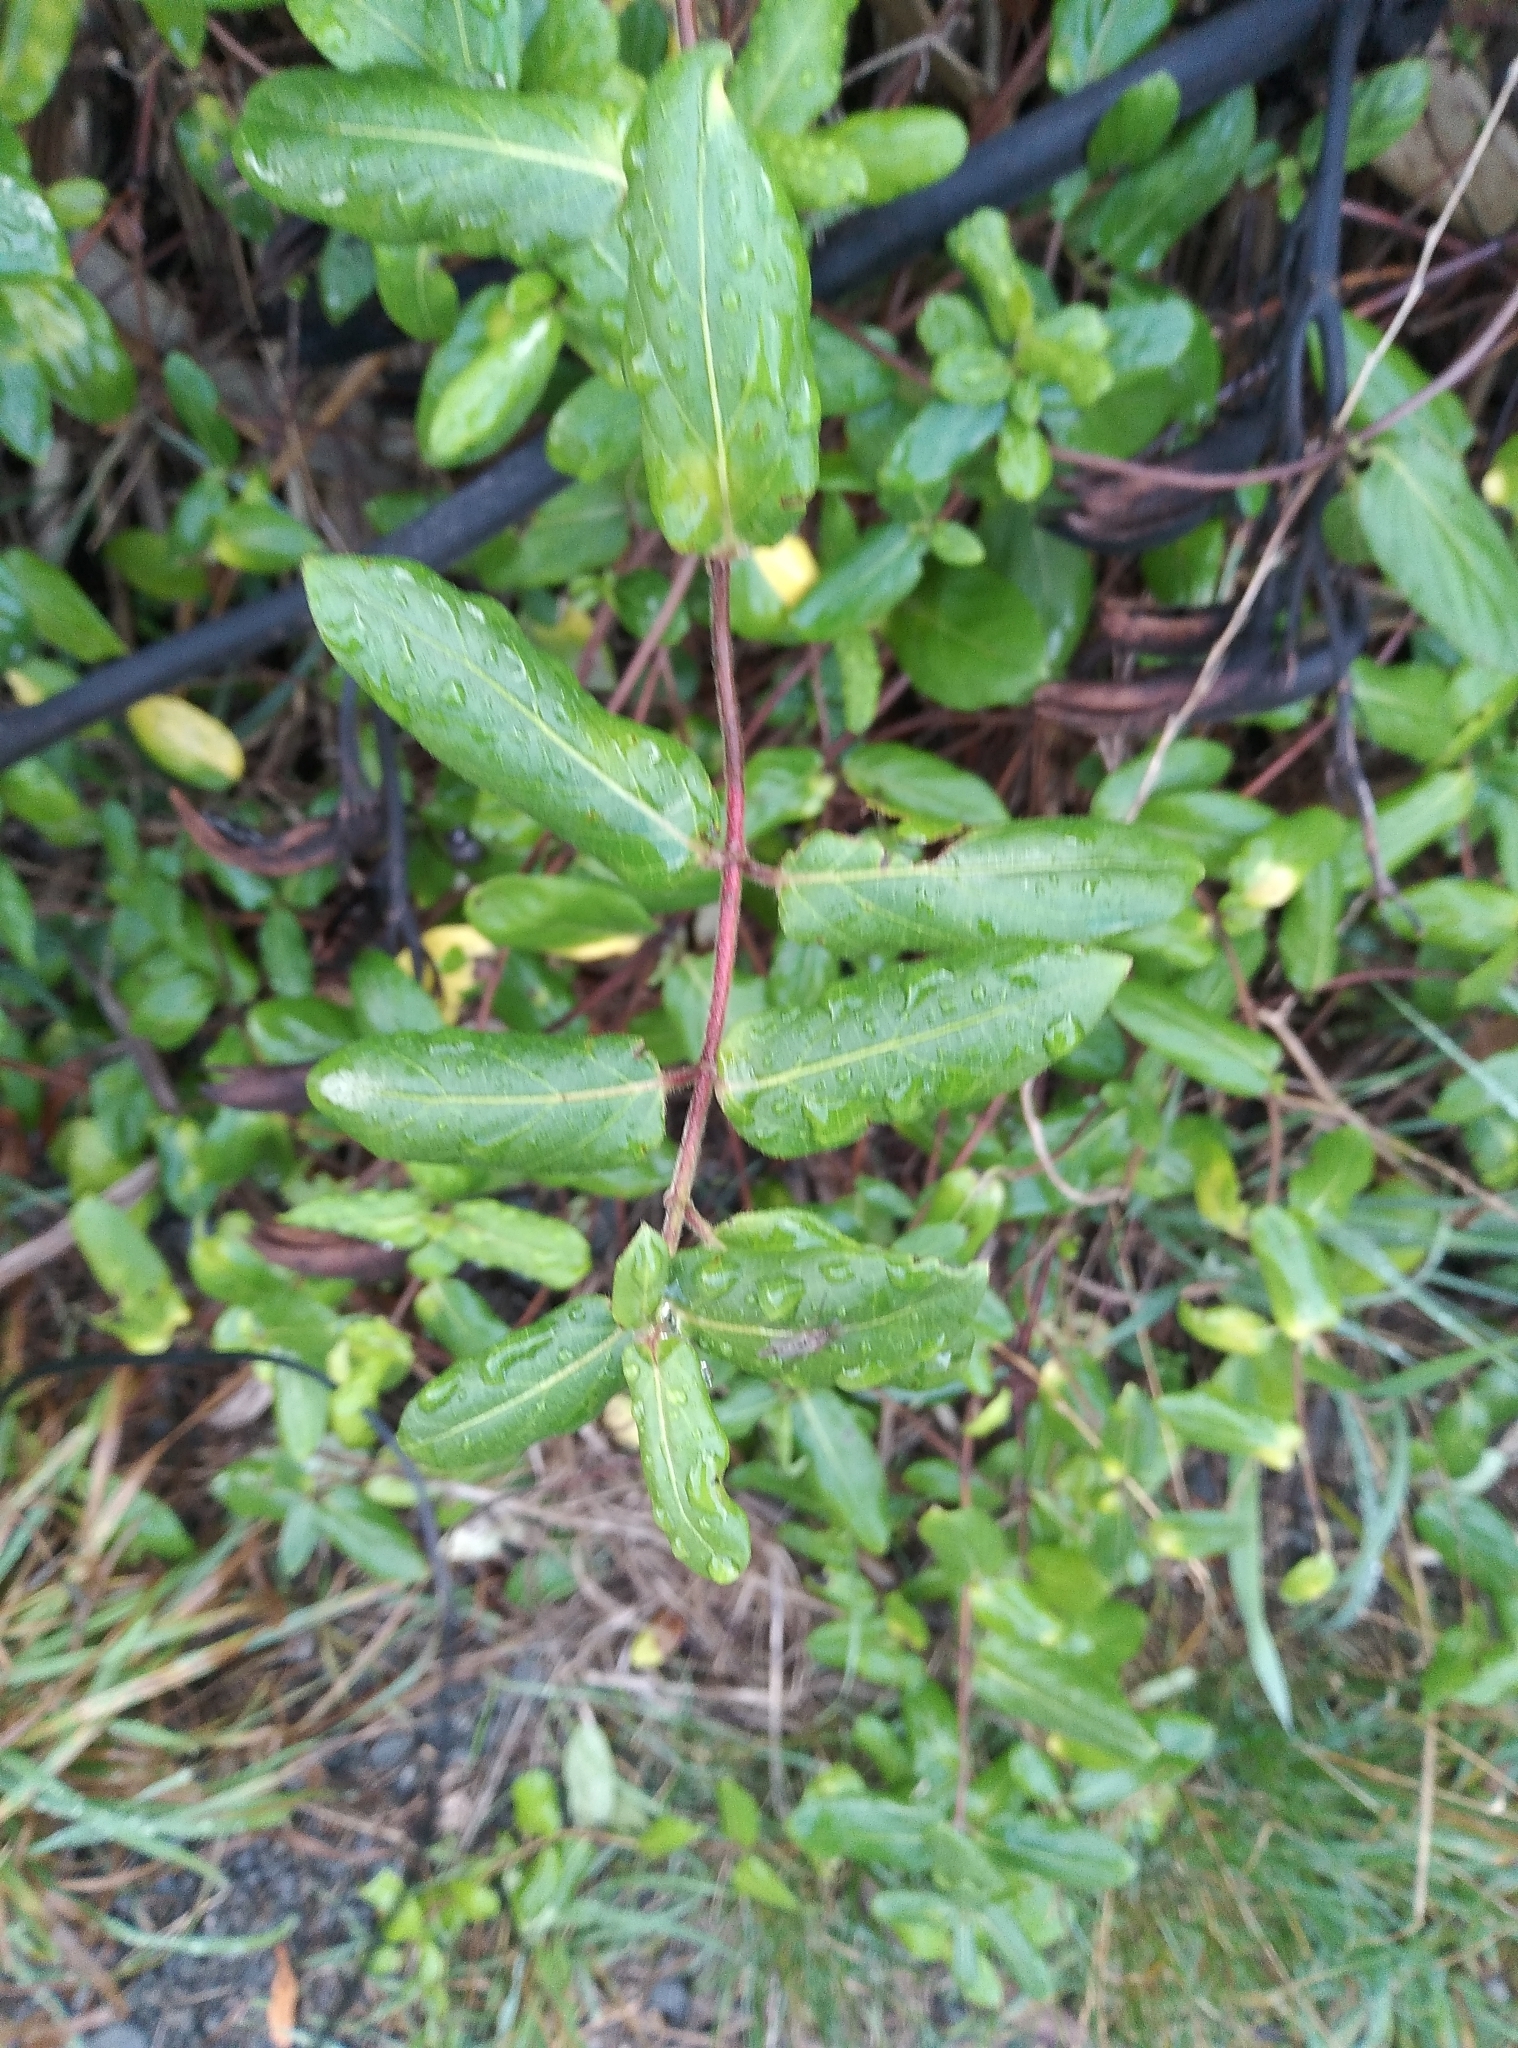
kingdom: Plantae
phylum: Tracheophyta
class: Magnoliopsida
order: Dipsacales
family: Caprifoliaceae
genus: Lonicera
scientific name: Lonicera japonica
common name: Japanese honeysuckle
